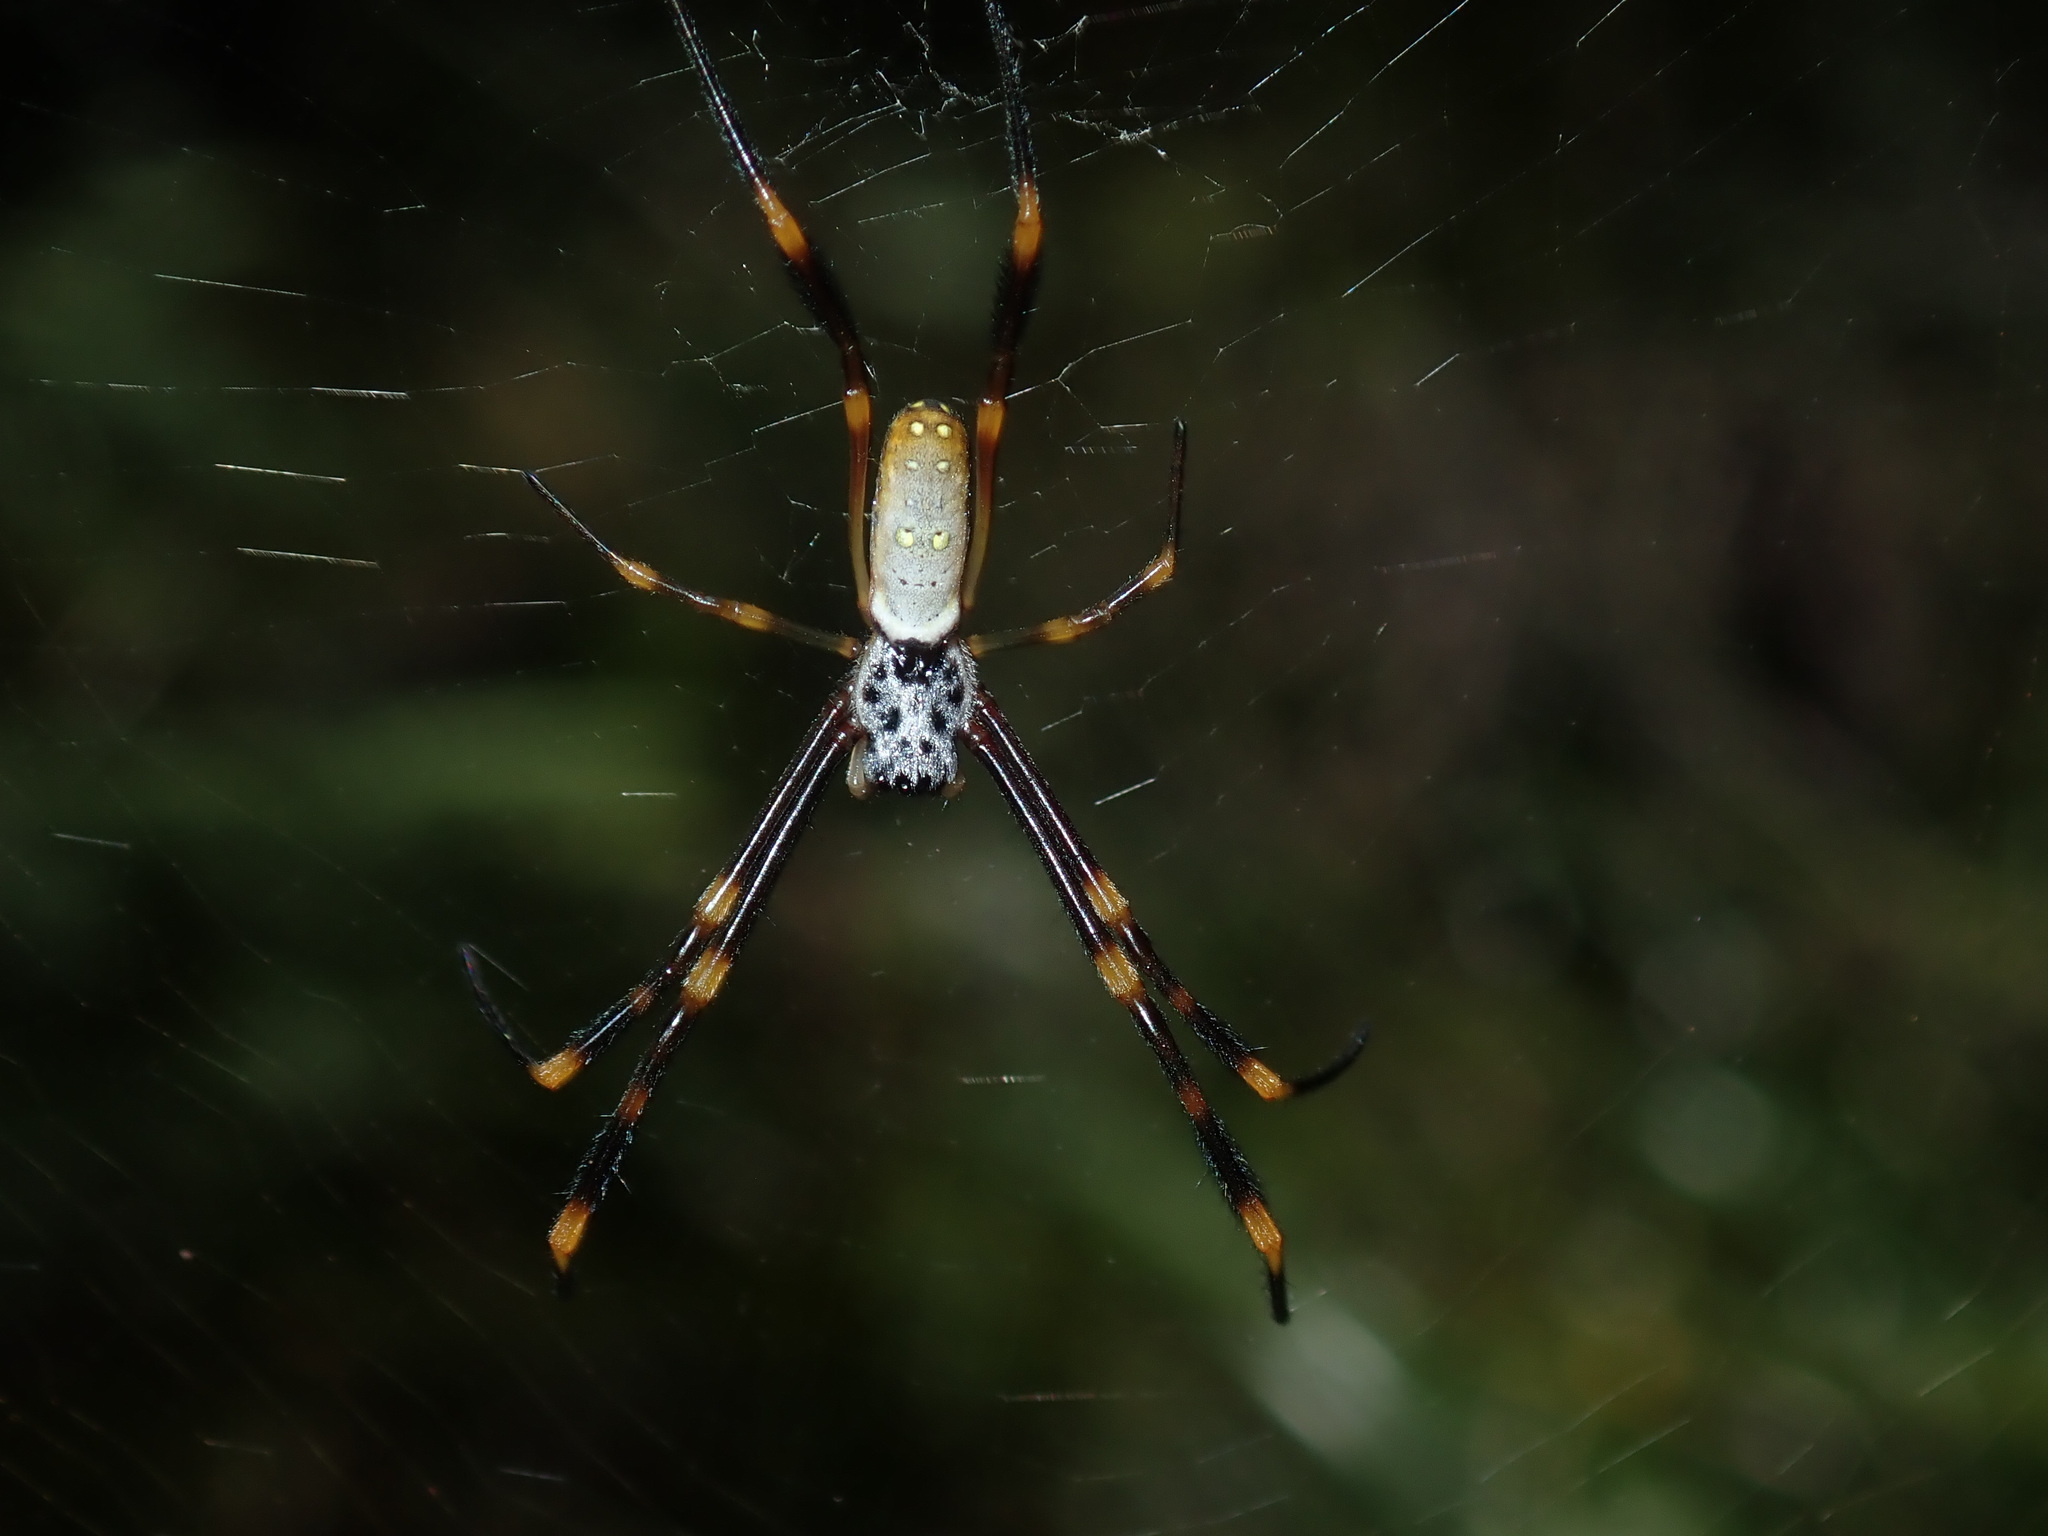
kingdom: Animalia
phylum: Arthropoda
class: Arachnida
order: Araneae
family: Araneidae
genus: Trichonephila
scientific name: Trichonephila plumipes
